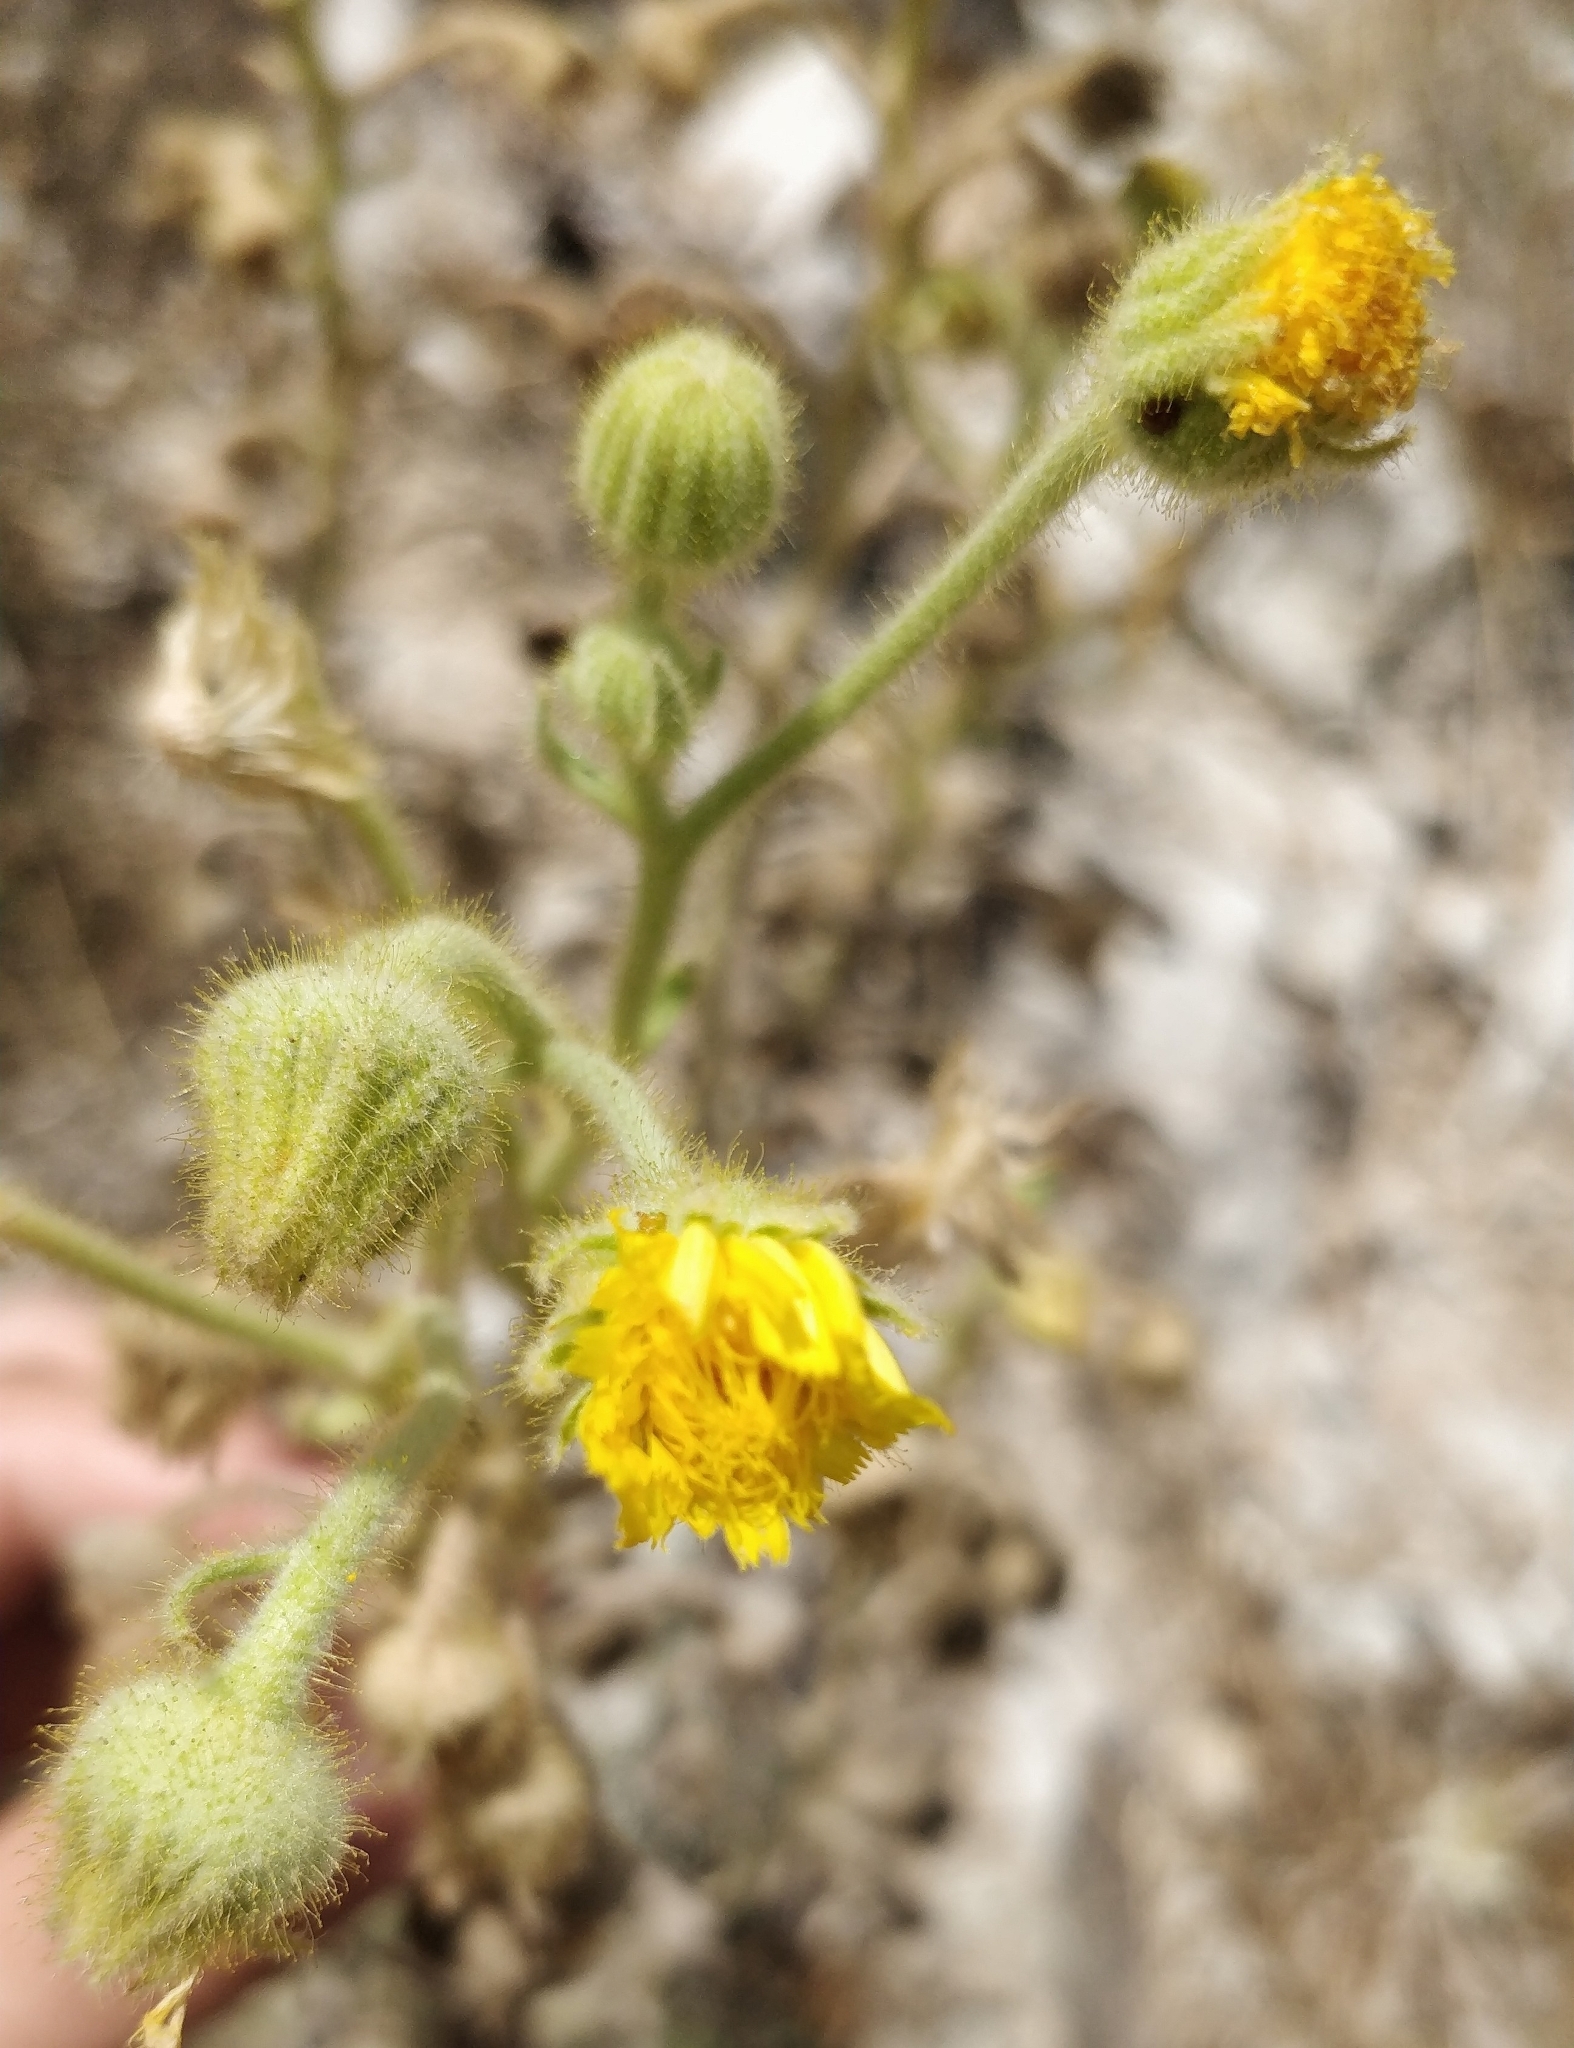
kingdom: Plantae
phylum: Tracheophyta
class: Magnoliopsida
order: Asterales
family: Asteraceae
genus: Andryala
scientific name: Andryala glandulosa
